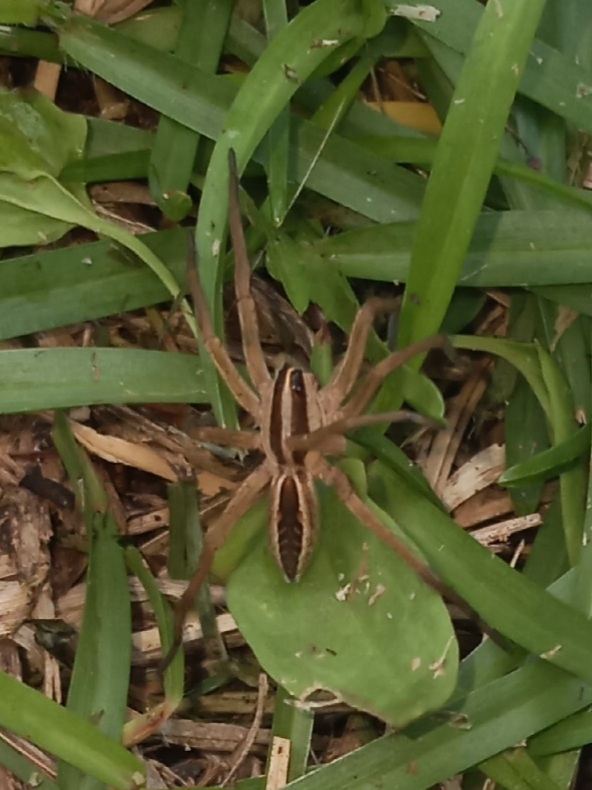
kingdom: Animalia
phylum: Arthropoda
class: Arachnida
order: Araneae
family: Lycosidae
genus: Rabidosa
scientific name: Rabidosa rabida
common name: Rabid wolf spider
